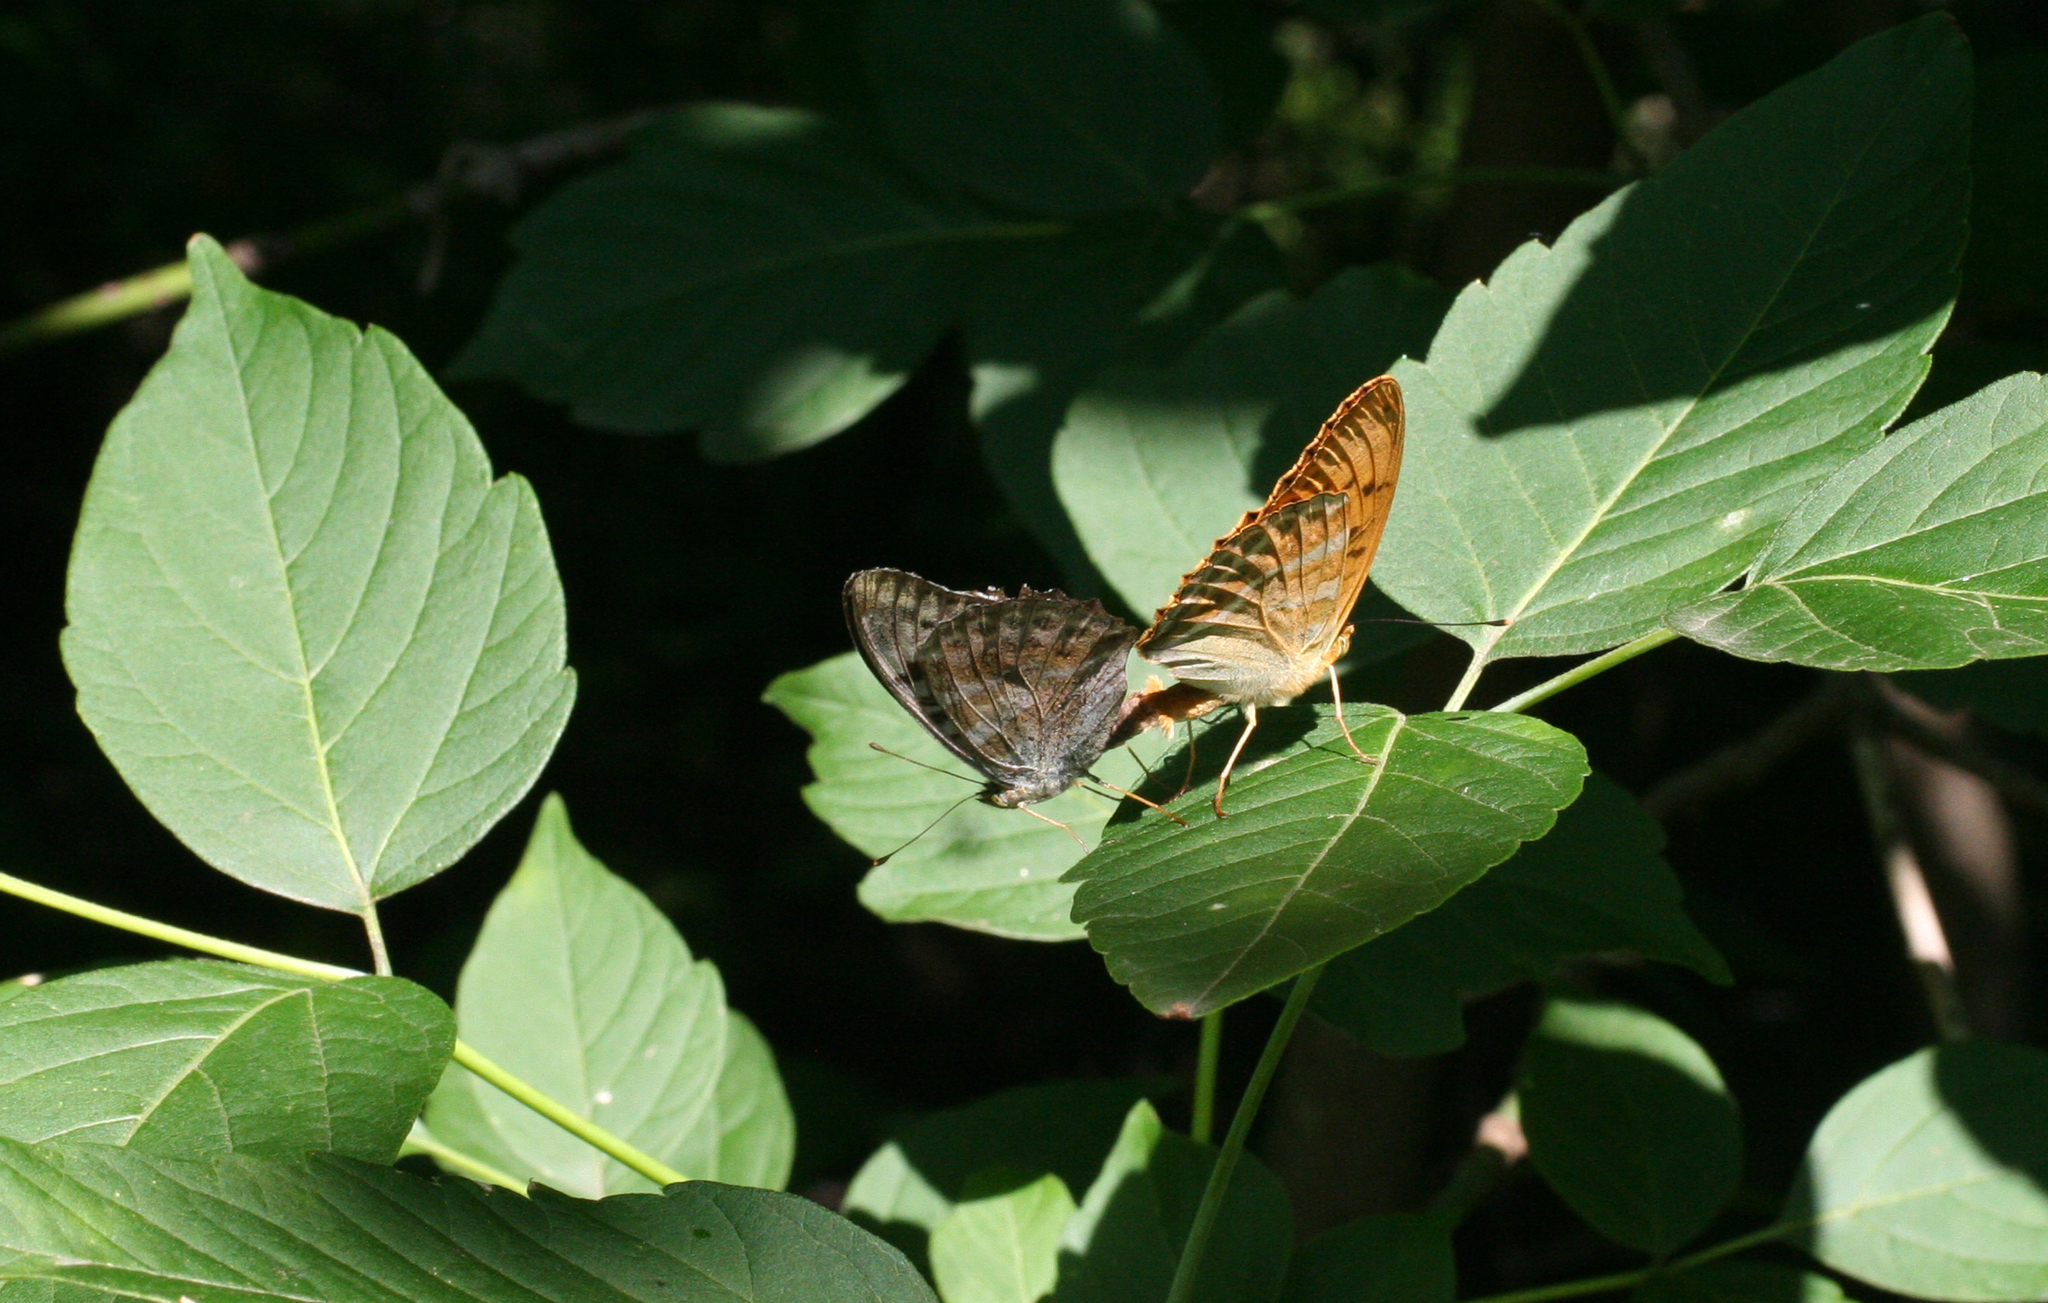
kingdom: Animalia
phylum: Arthropoda
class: Insecta
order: Lepidoptera
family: Nymphalidae
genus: Argynnis
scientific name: Argynnis paphia
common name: Silver-washed fritillary
